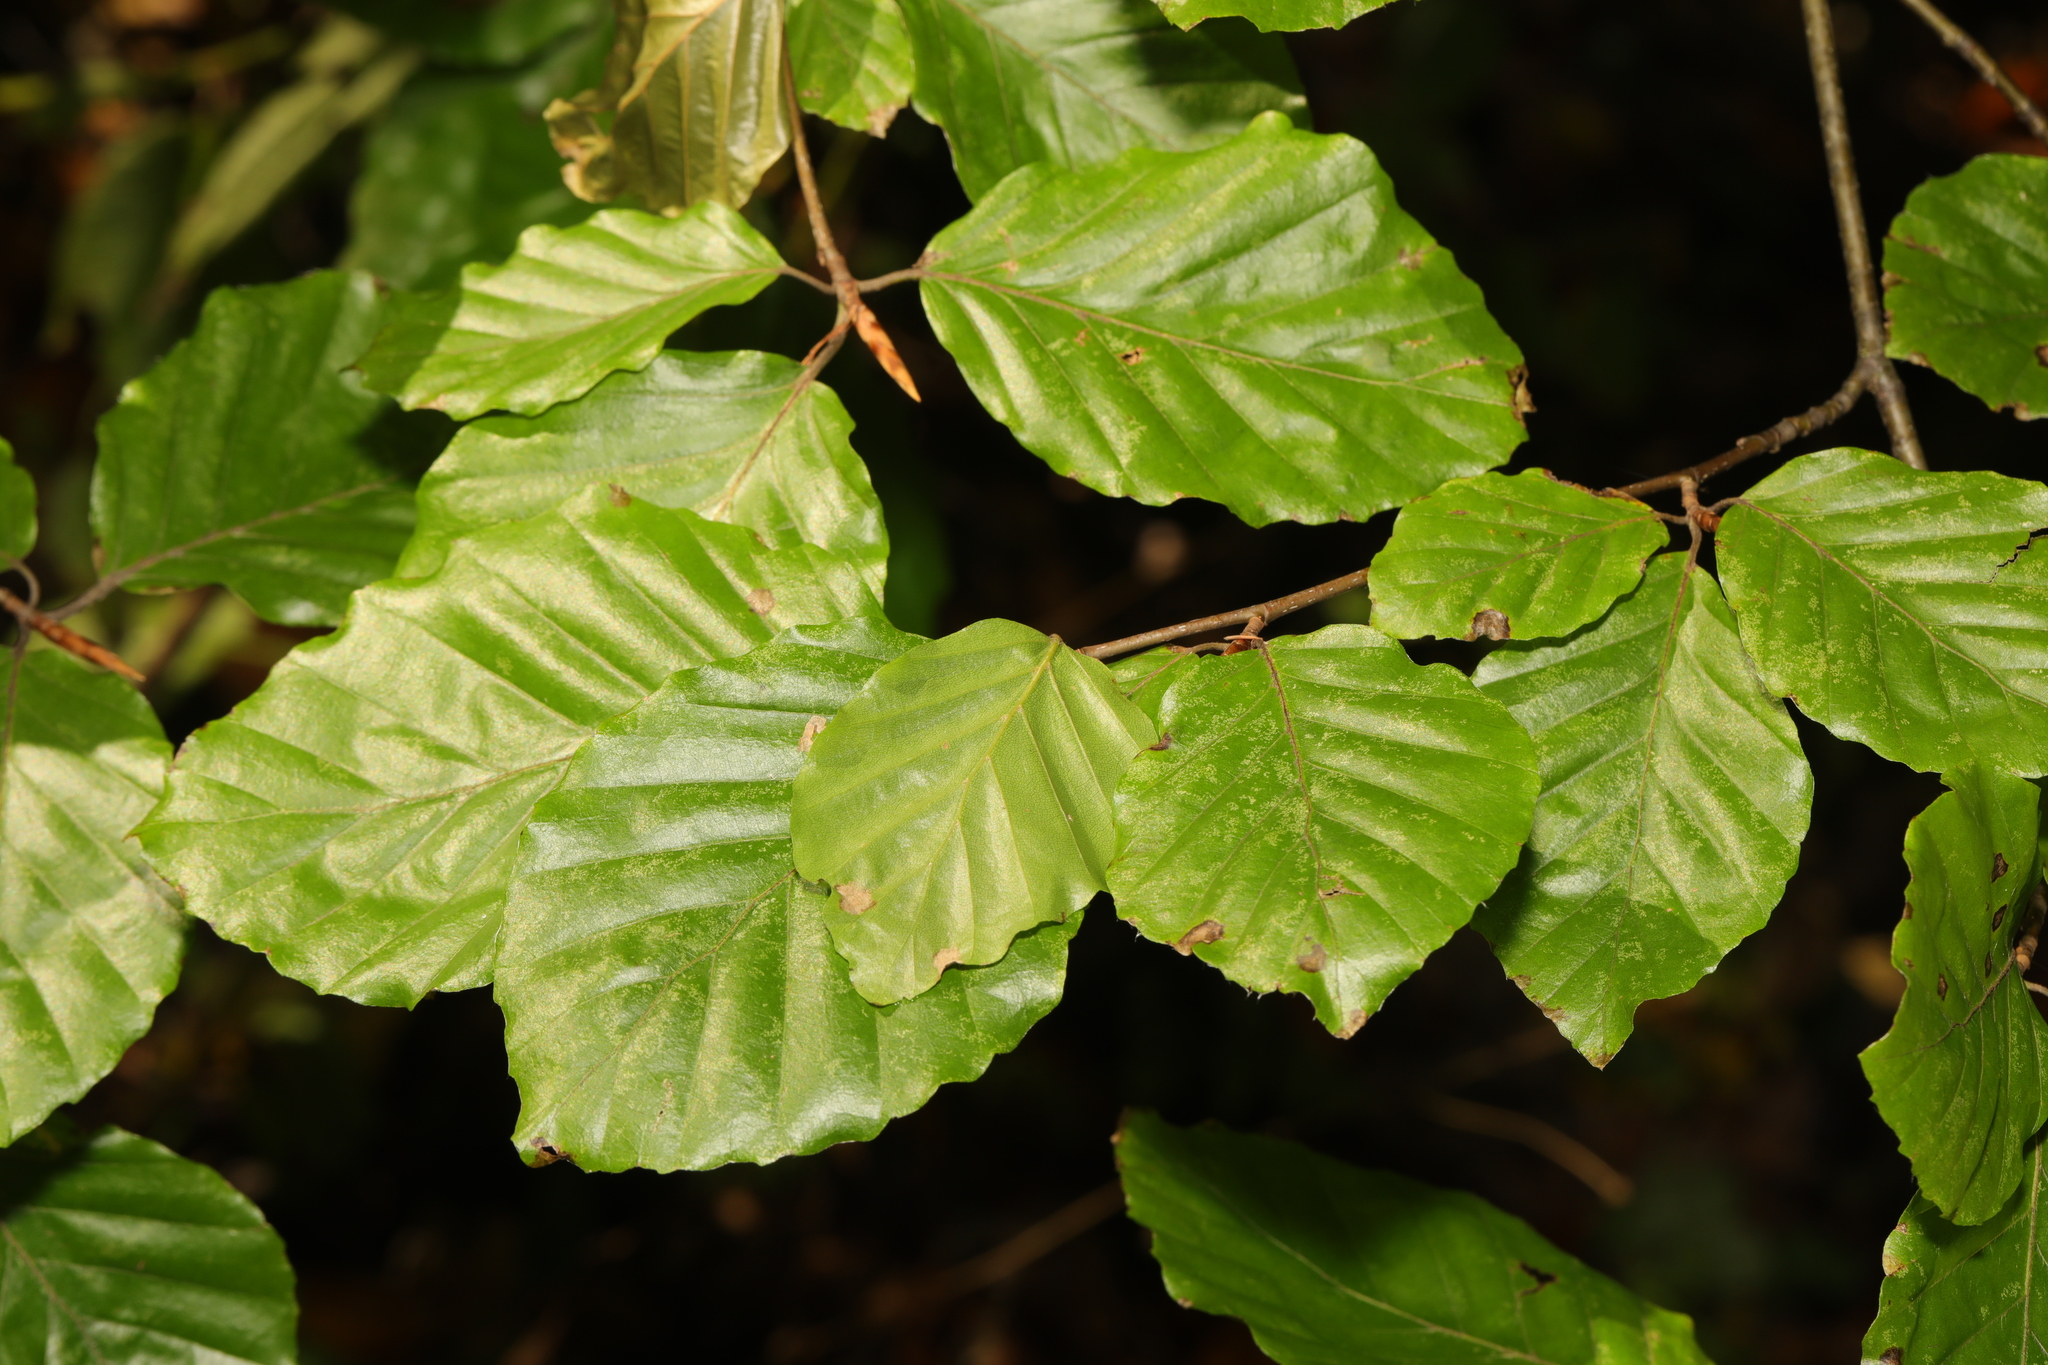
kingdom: Plantae
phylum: Tracheophyta
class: Magnoliopsida
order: Fagales
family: Fagaceae
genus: Fagus
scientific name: Fagus sylvatica
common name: Beech
